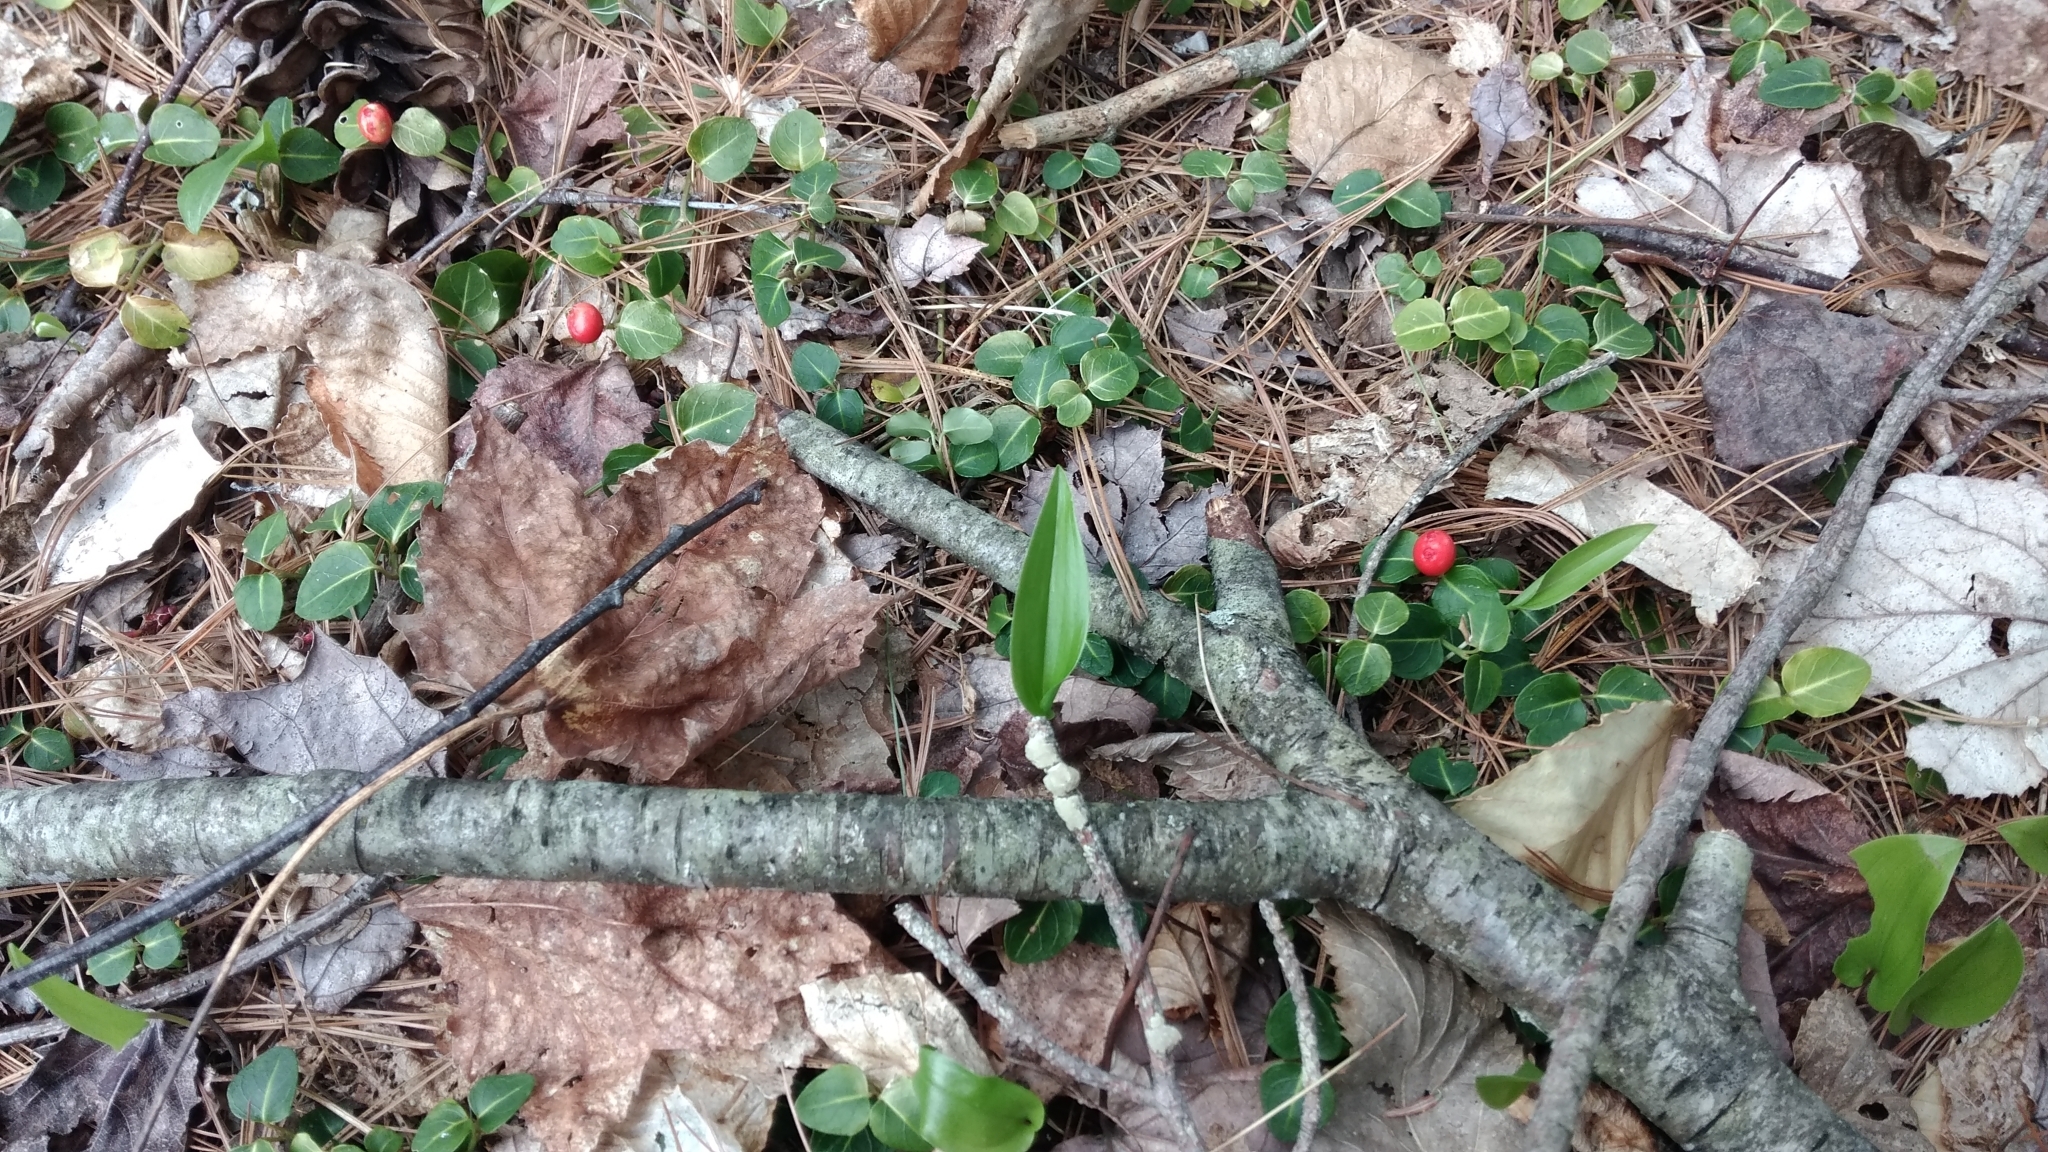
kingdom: Plantae
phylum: Tracheophyta
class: Magnoliopsida
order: Gentianales
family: Rubiaceae
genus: Mitchella
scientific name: Mitchella repens
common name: Partridge-berry
